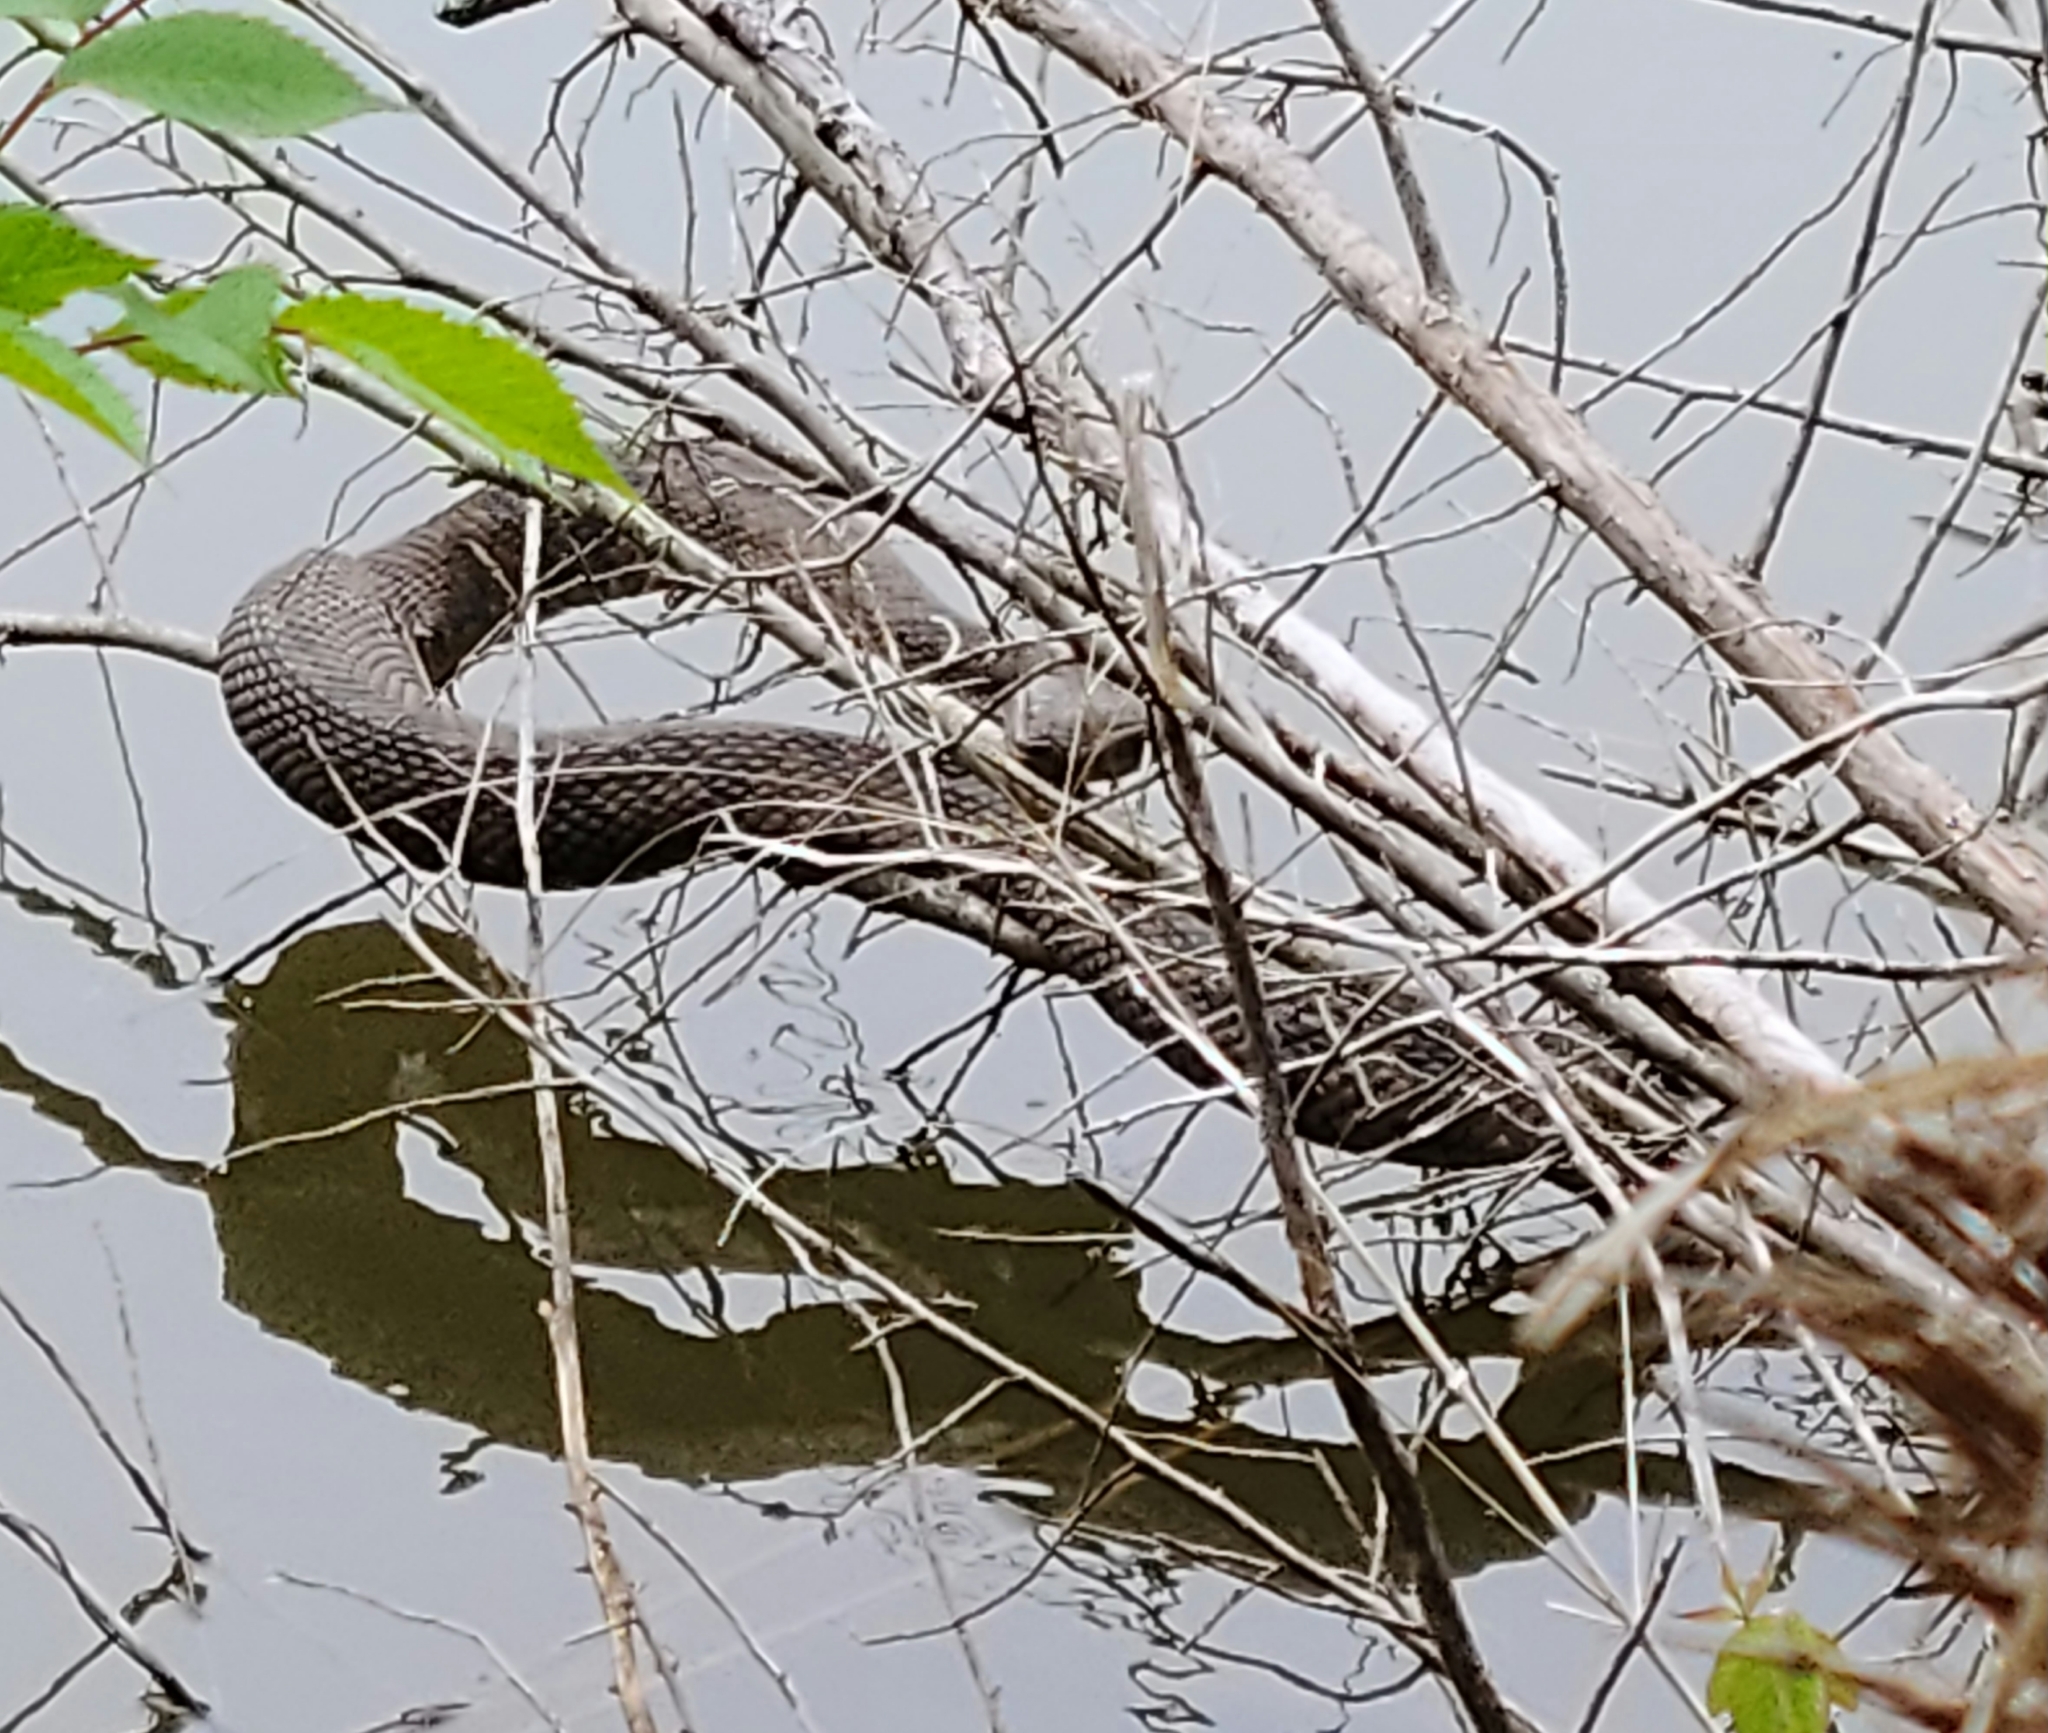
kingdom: Animalia
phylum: Chordata
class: Squamata
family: Colubridae
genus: Nerodia
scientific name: Nerodia erythrogaster
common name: Plainbelly water snake
